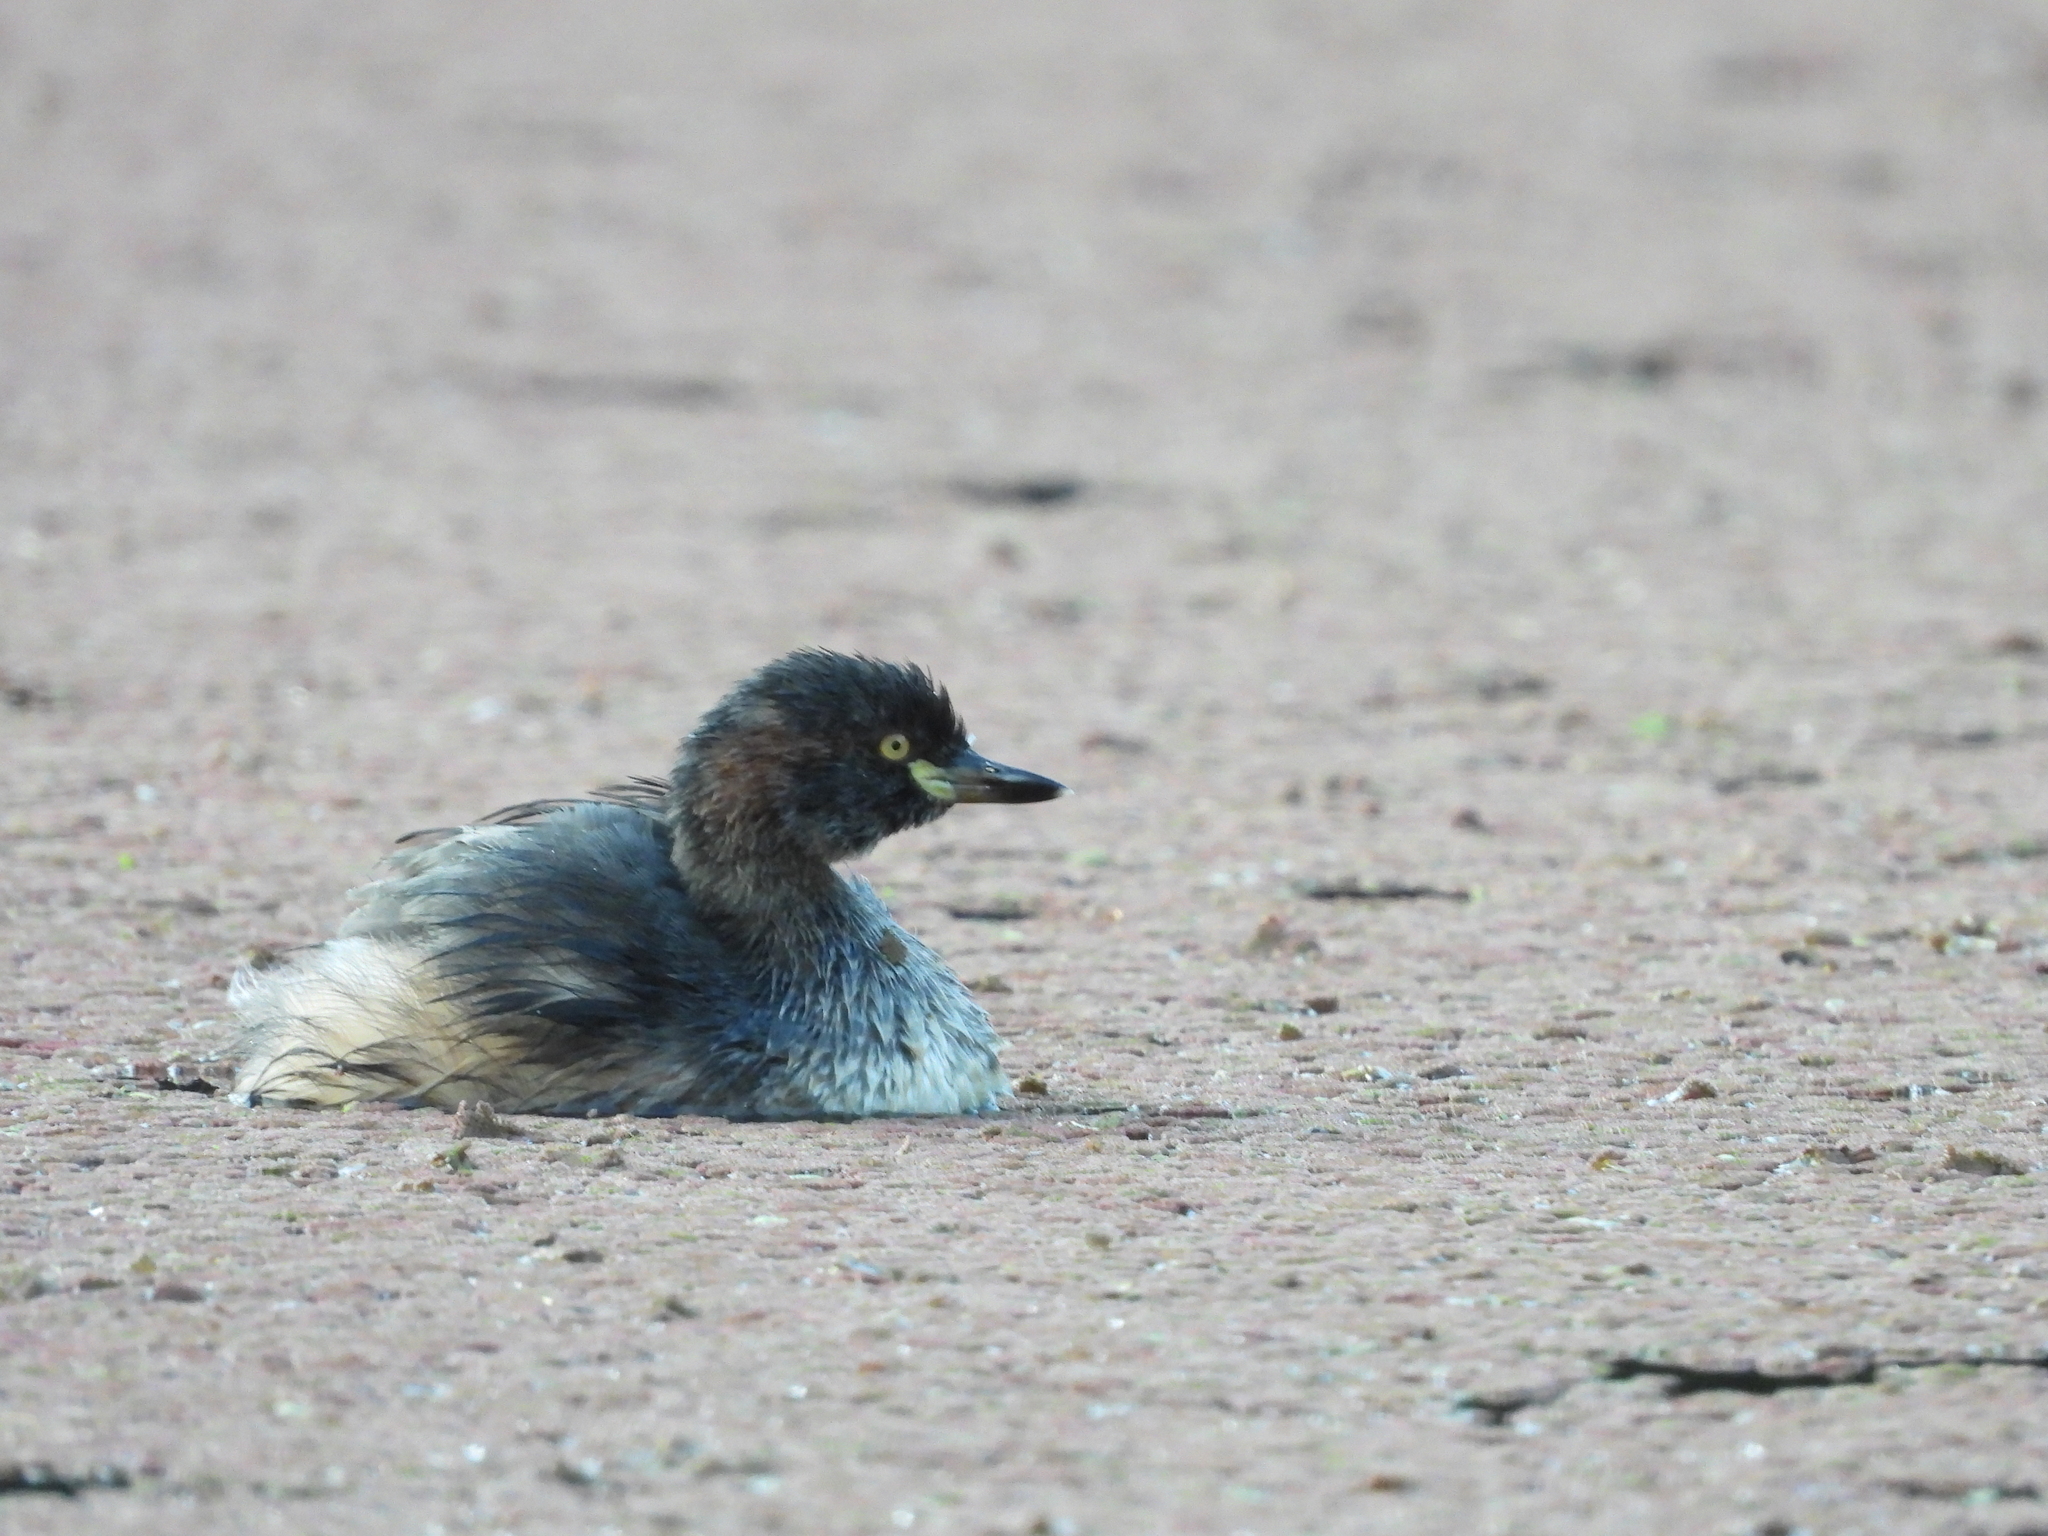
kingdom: Animalia
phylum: Chordata
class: Aves
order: Podicipediformes
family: Podicipedidae
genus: Tachybaptus
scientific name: Tachybaptus novaehollandiae
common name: Australasian grebe
